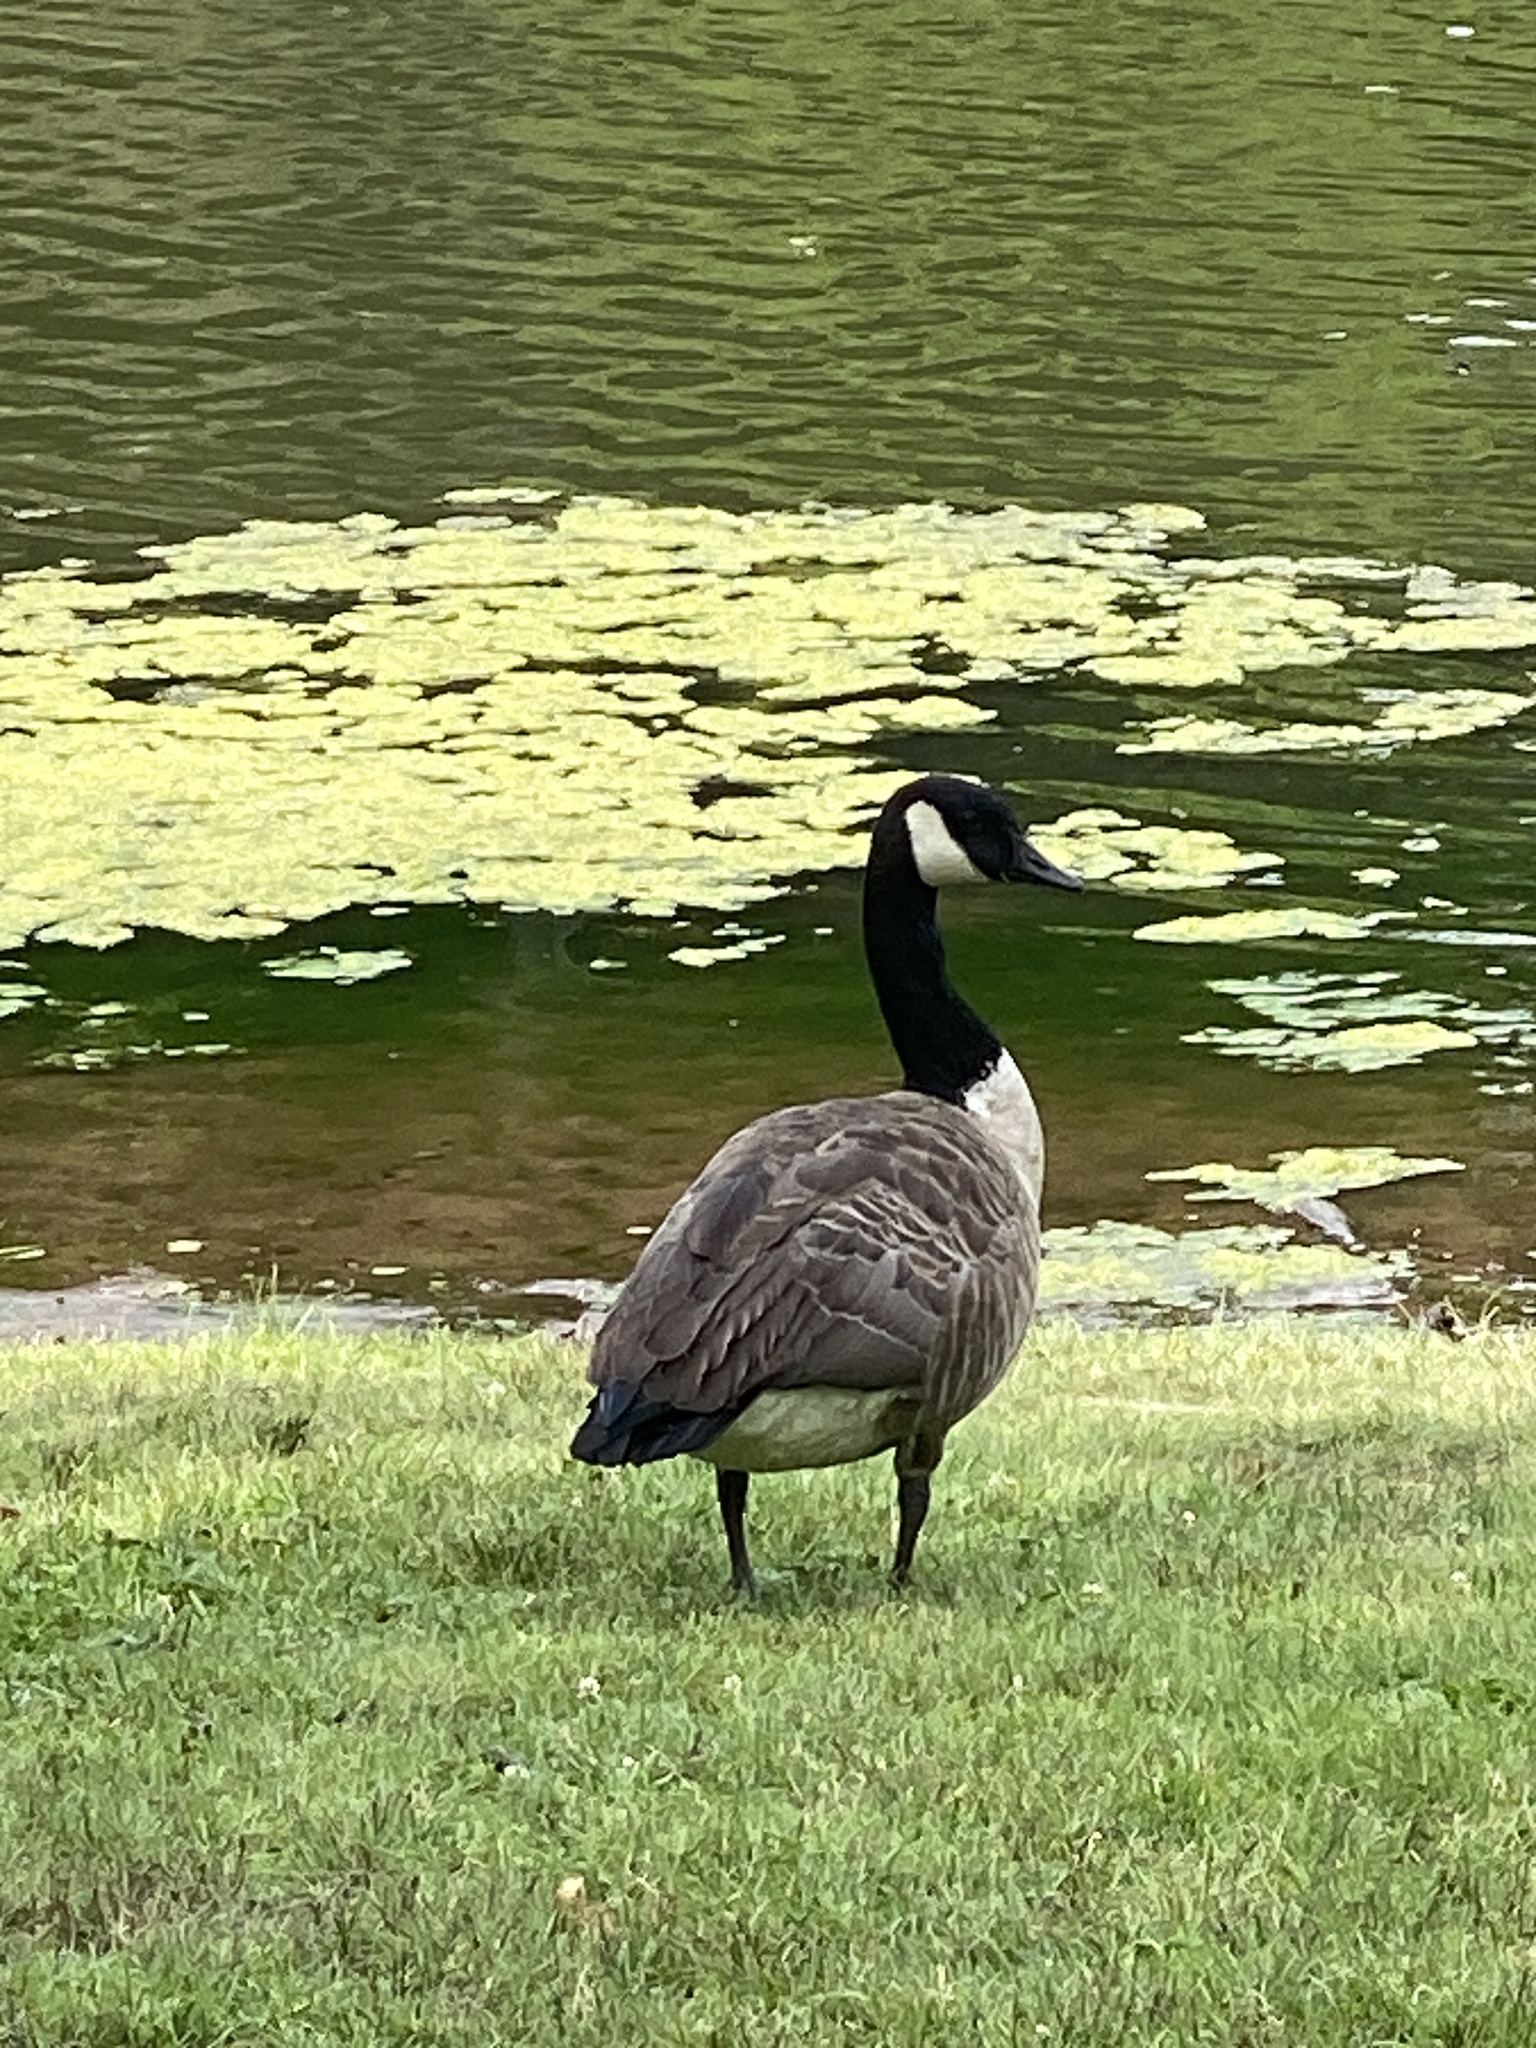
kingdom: Animalia
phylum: Chordata
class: Aves
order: Anseriformes
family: Anatidae
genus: Branta
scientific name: Branta canadensis
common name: Canada goose
